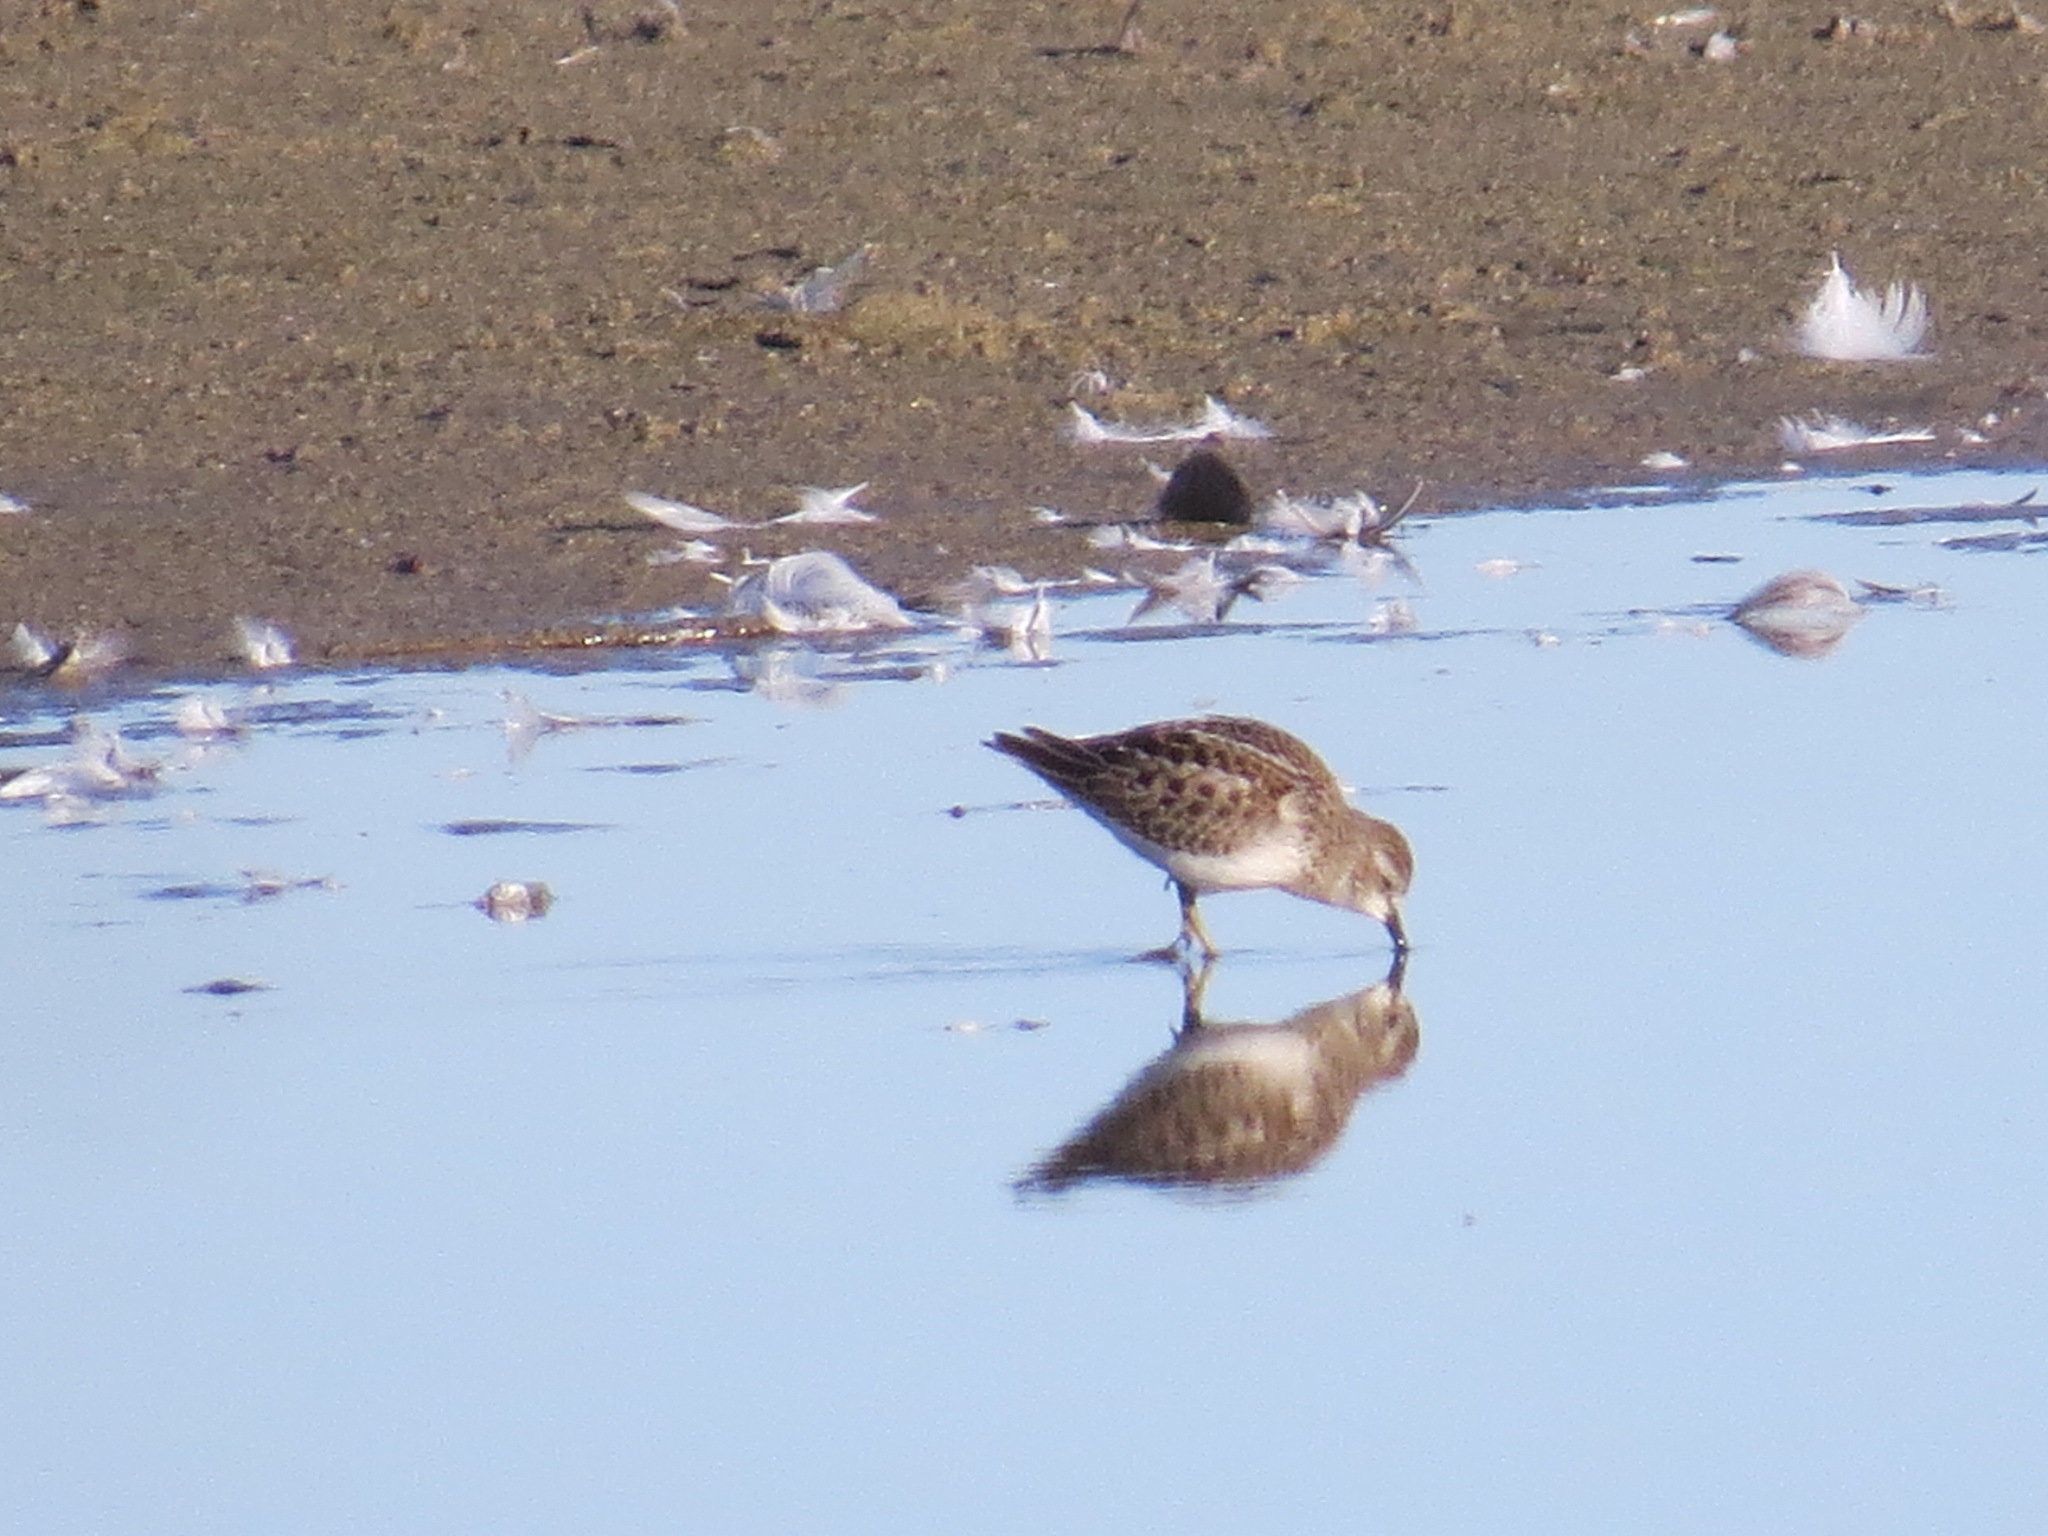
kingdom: Animalia
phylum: Chordata
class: Aves
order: Charadriiformes
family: Scolopacidae
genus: Calidris
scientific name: Calidris minutilla
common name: Least sandpiper
